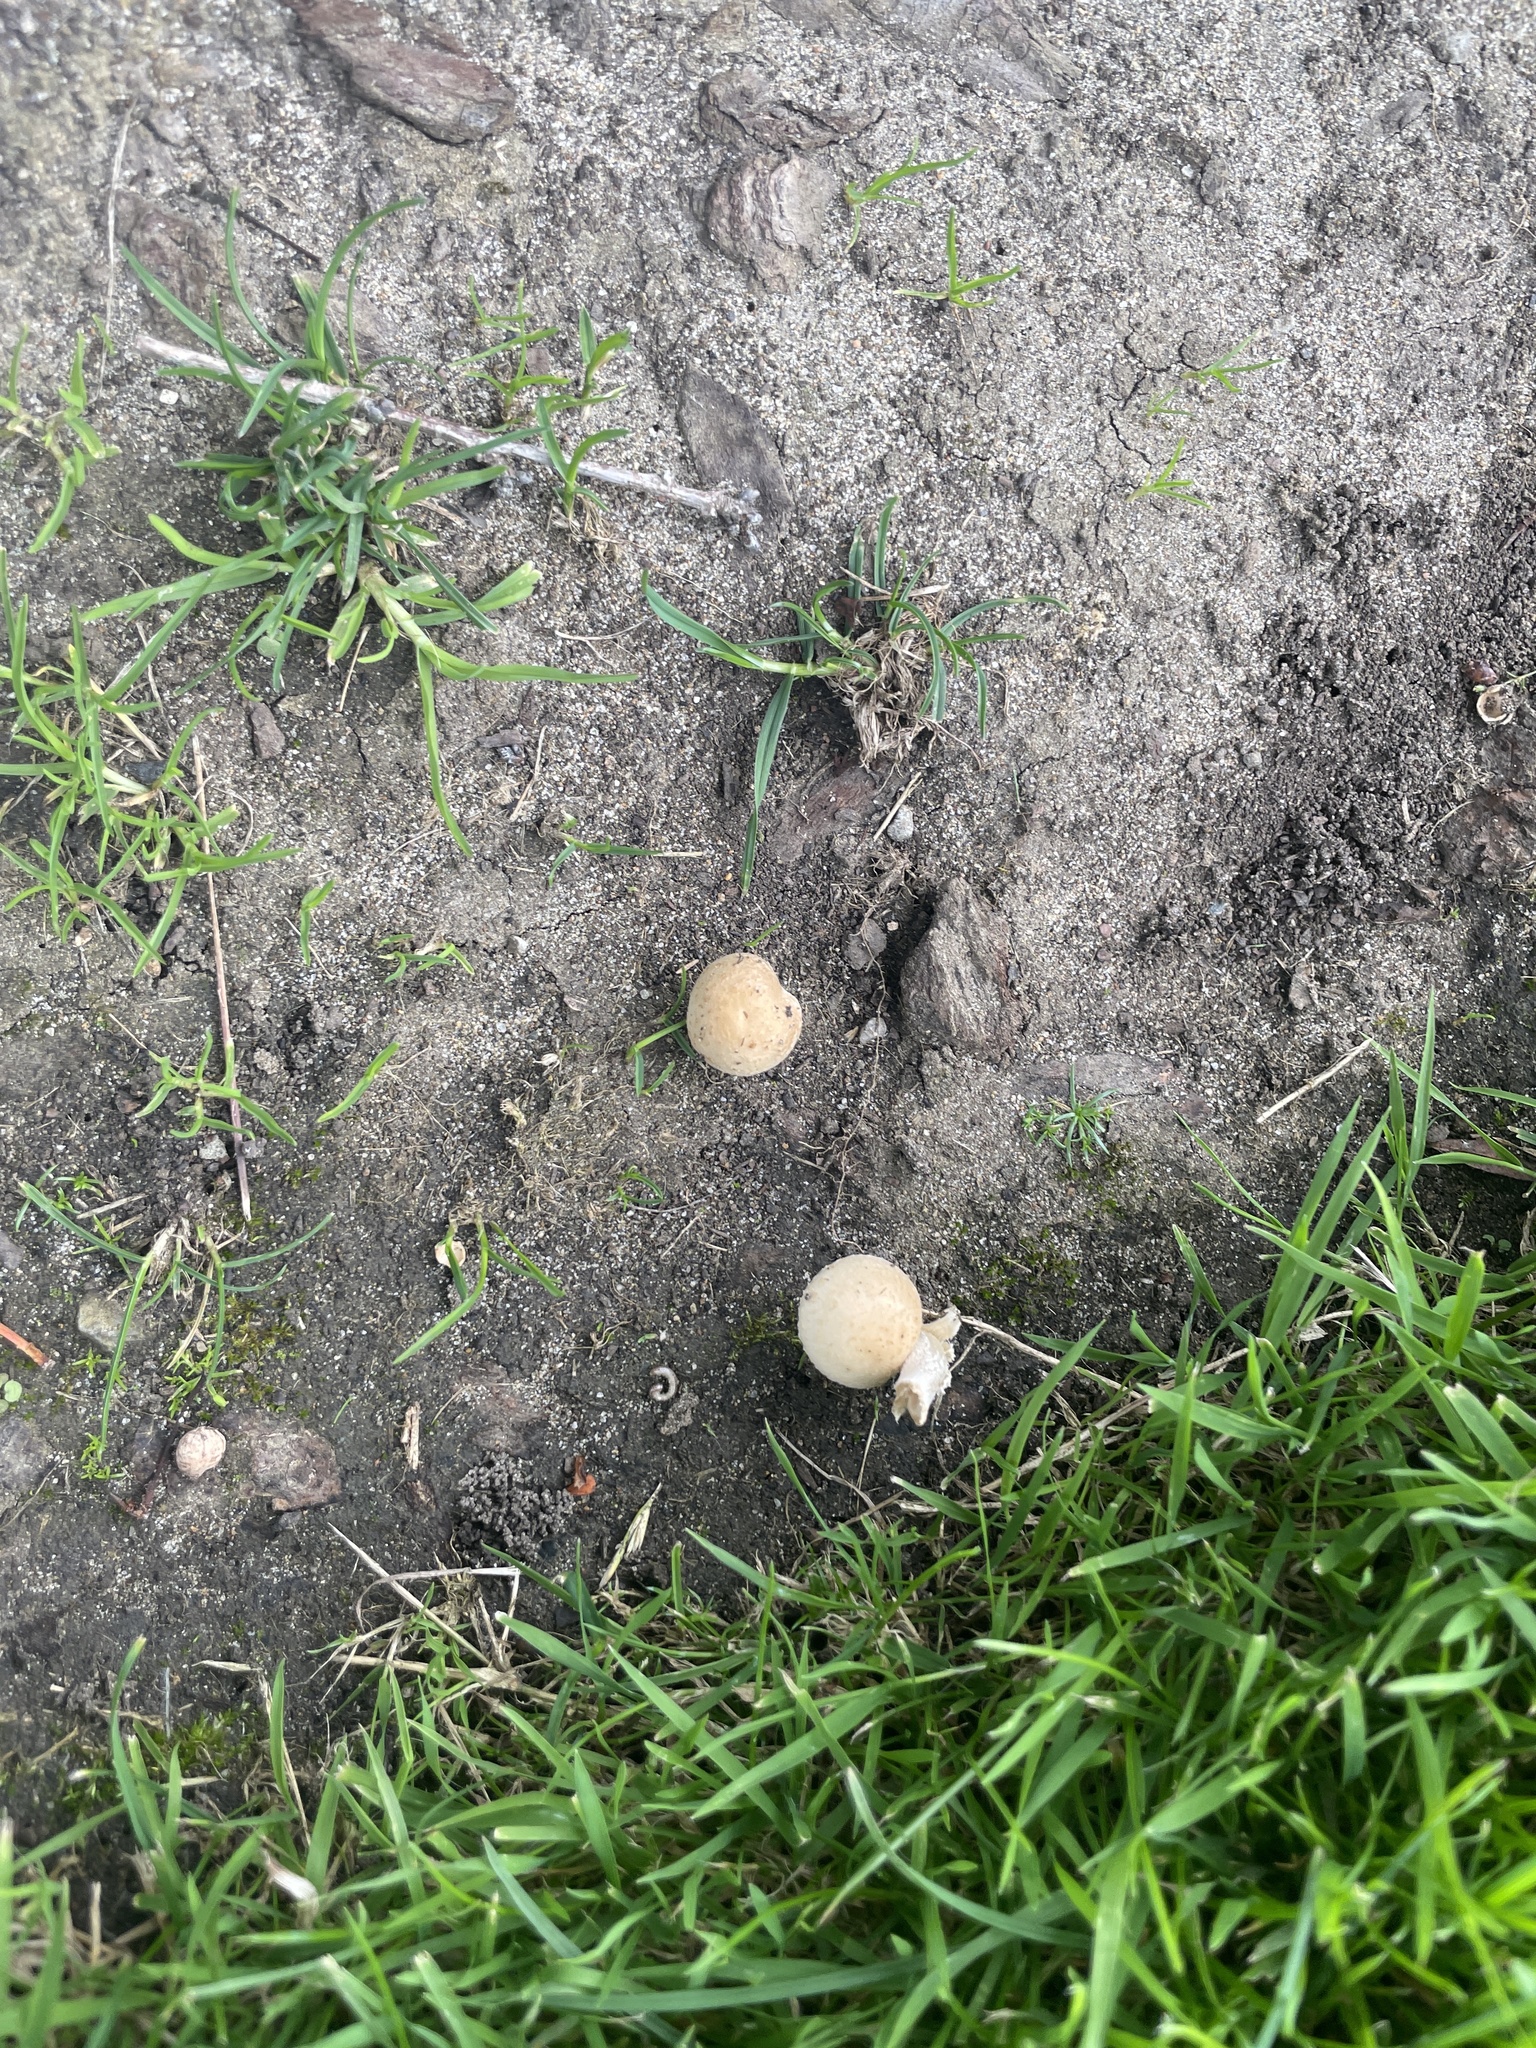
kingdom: Fungi
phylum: Basidiomycota
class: Agaricomycetes
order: Agaricales
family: Psathyrellaceae
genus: Candolleomyces
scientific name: Candolleomyces candolleanus
